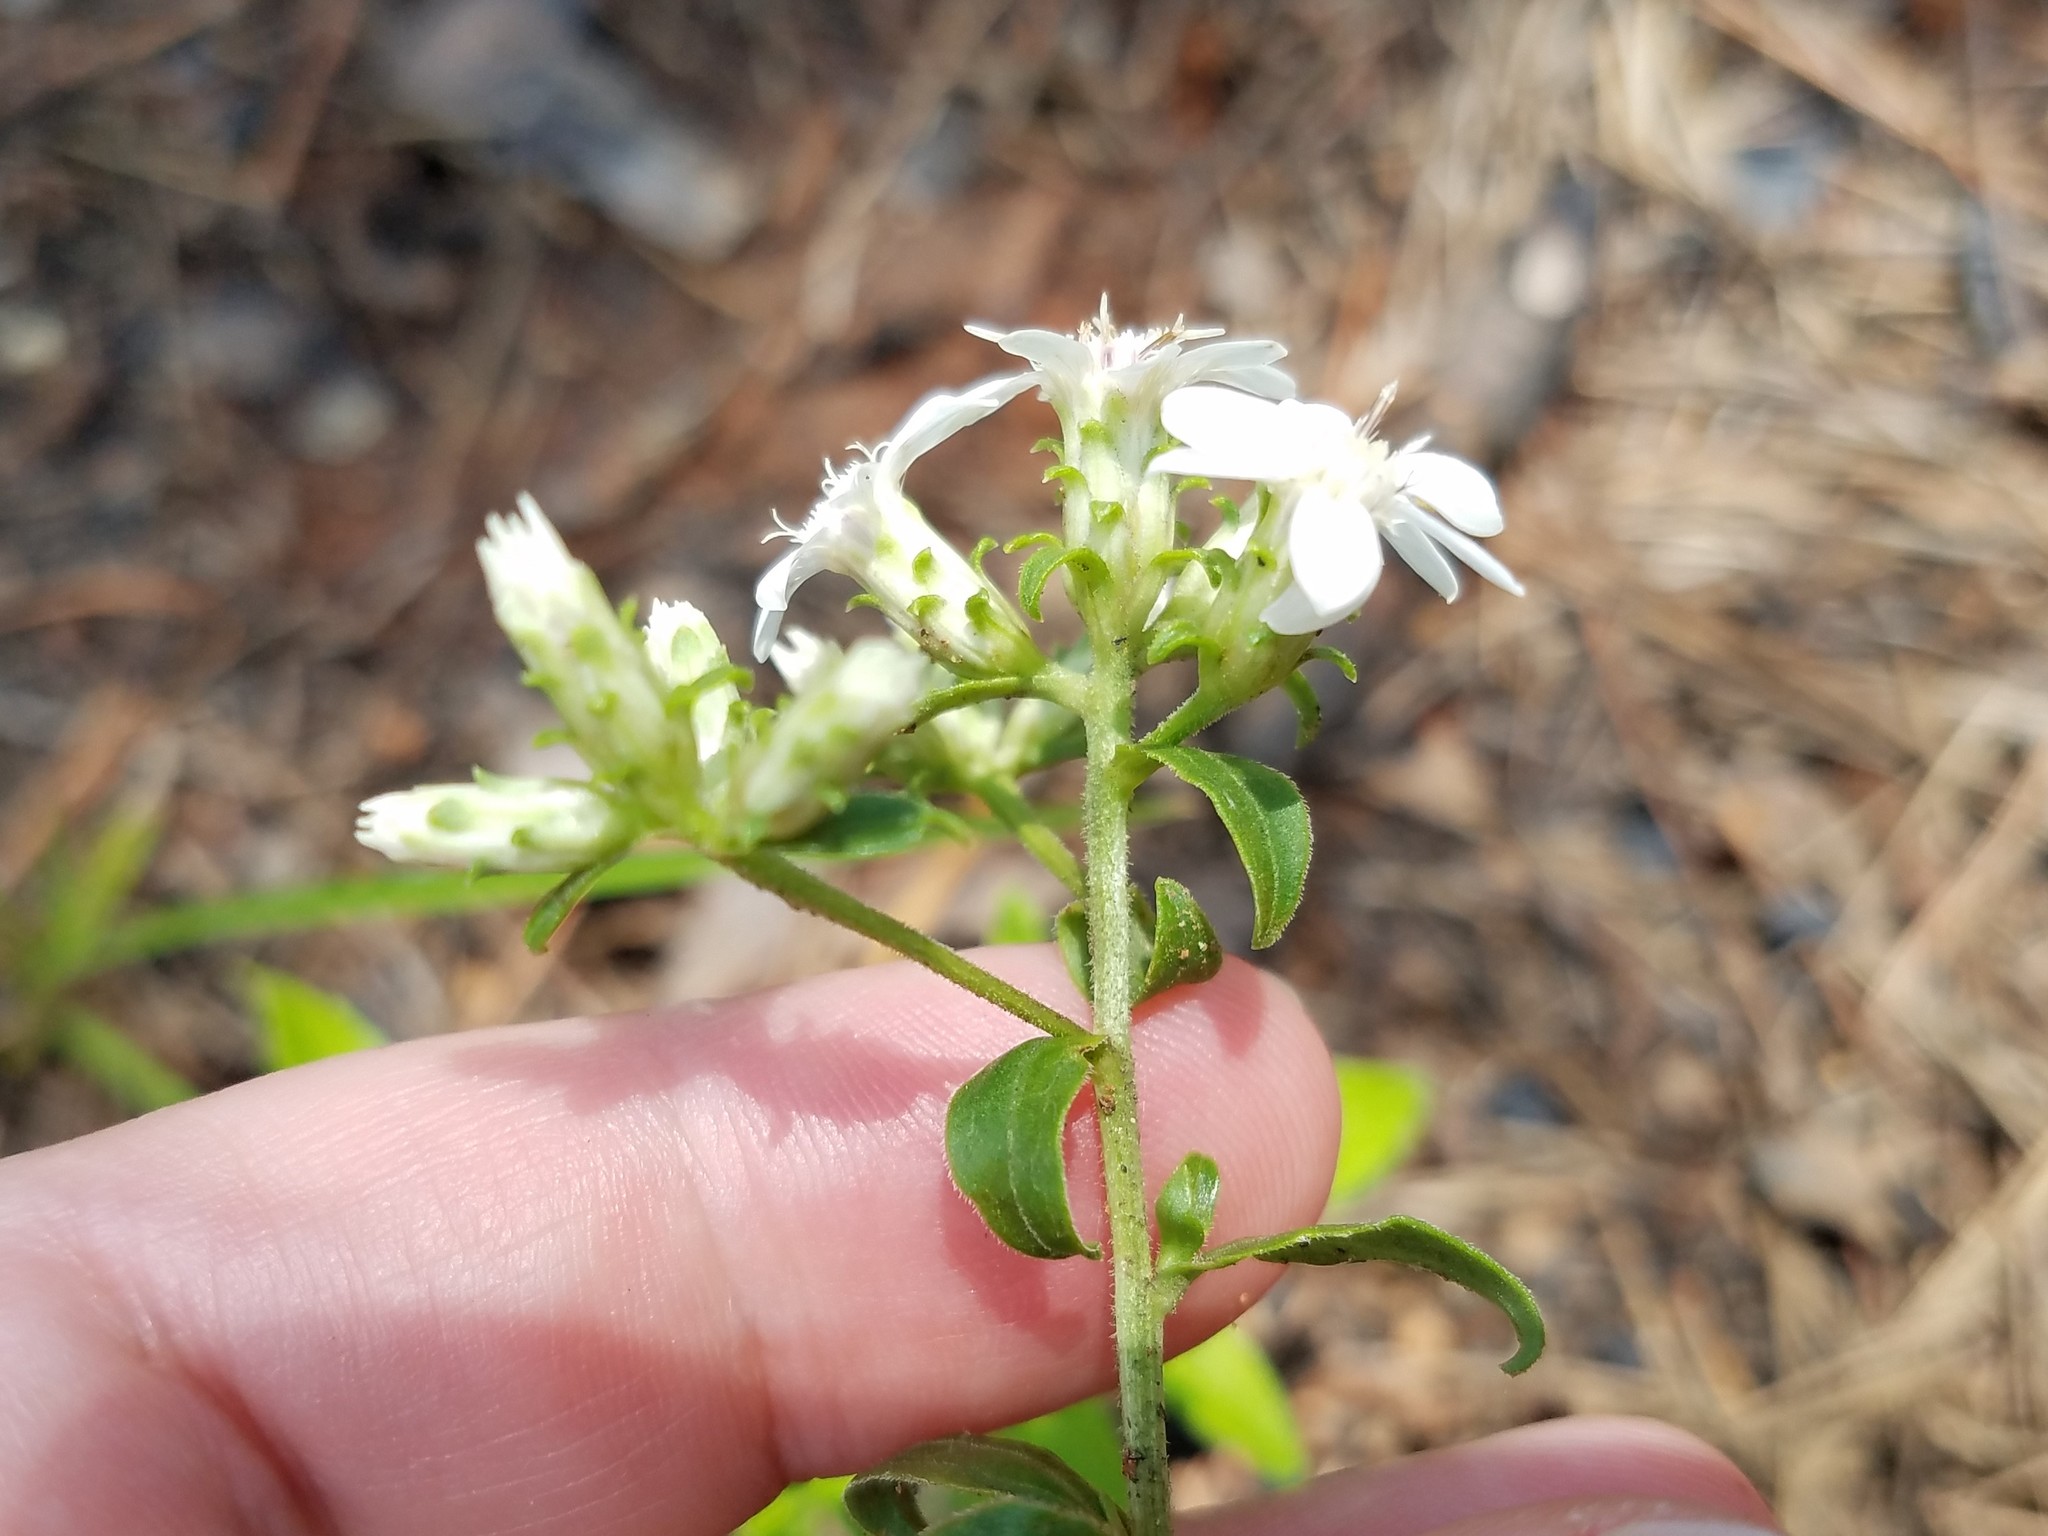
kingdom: Plantae
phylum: Tracheophyta
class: Magnoliopsida
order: Asterales
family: Asteraceae
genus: Sericocarpus
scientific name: Sericocarpus asteroides
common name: Toothed white-top aster
